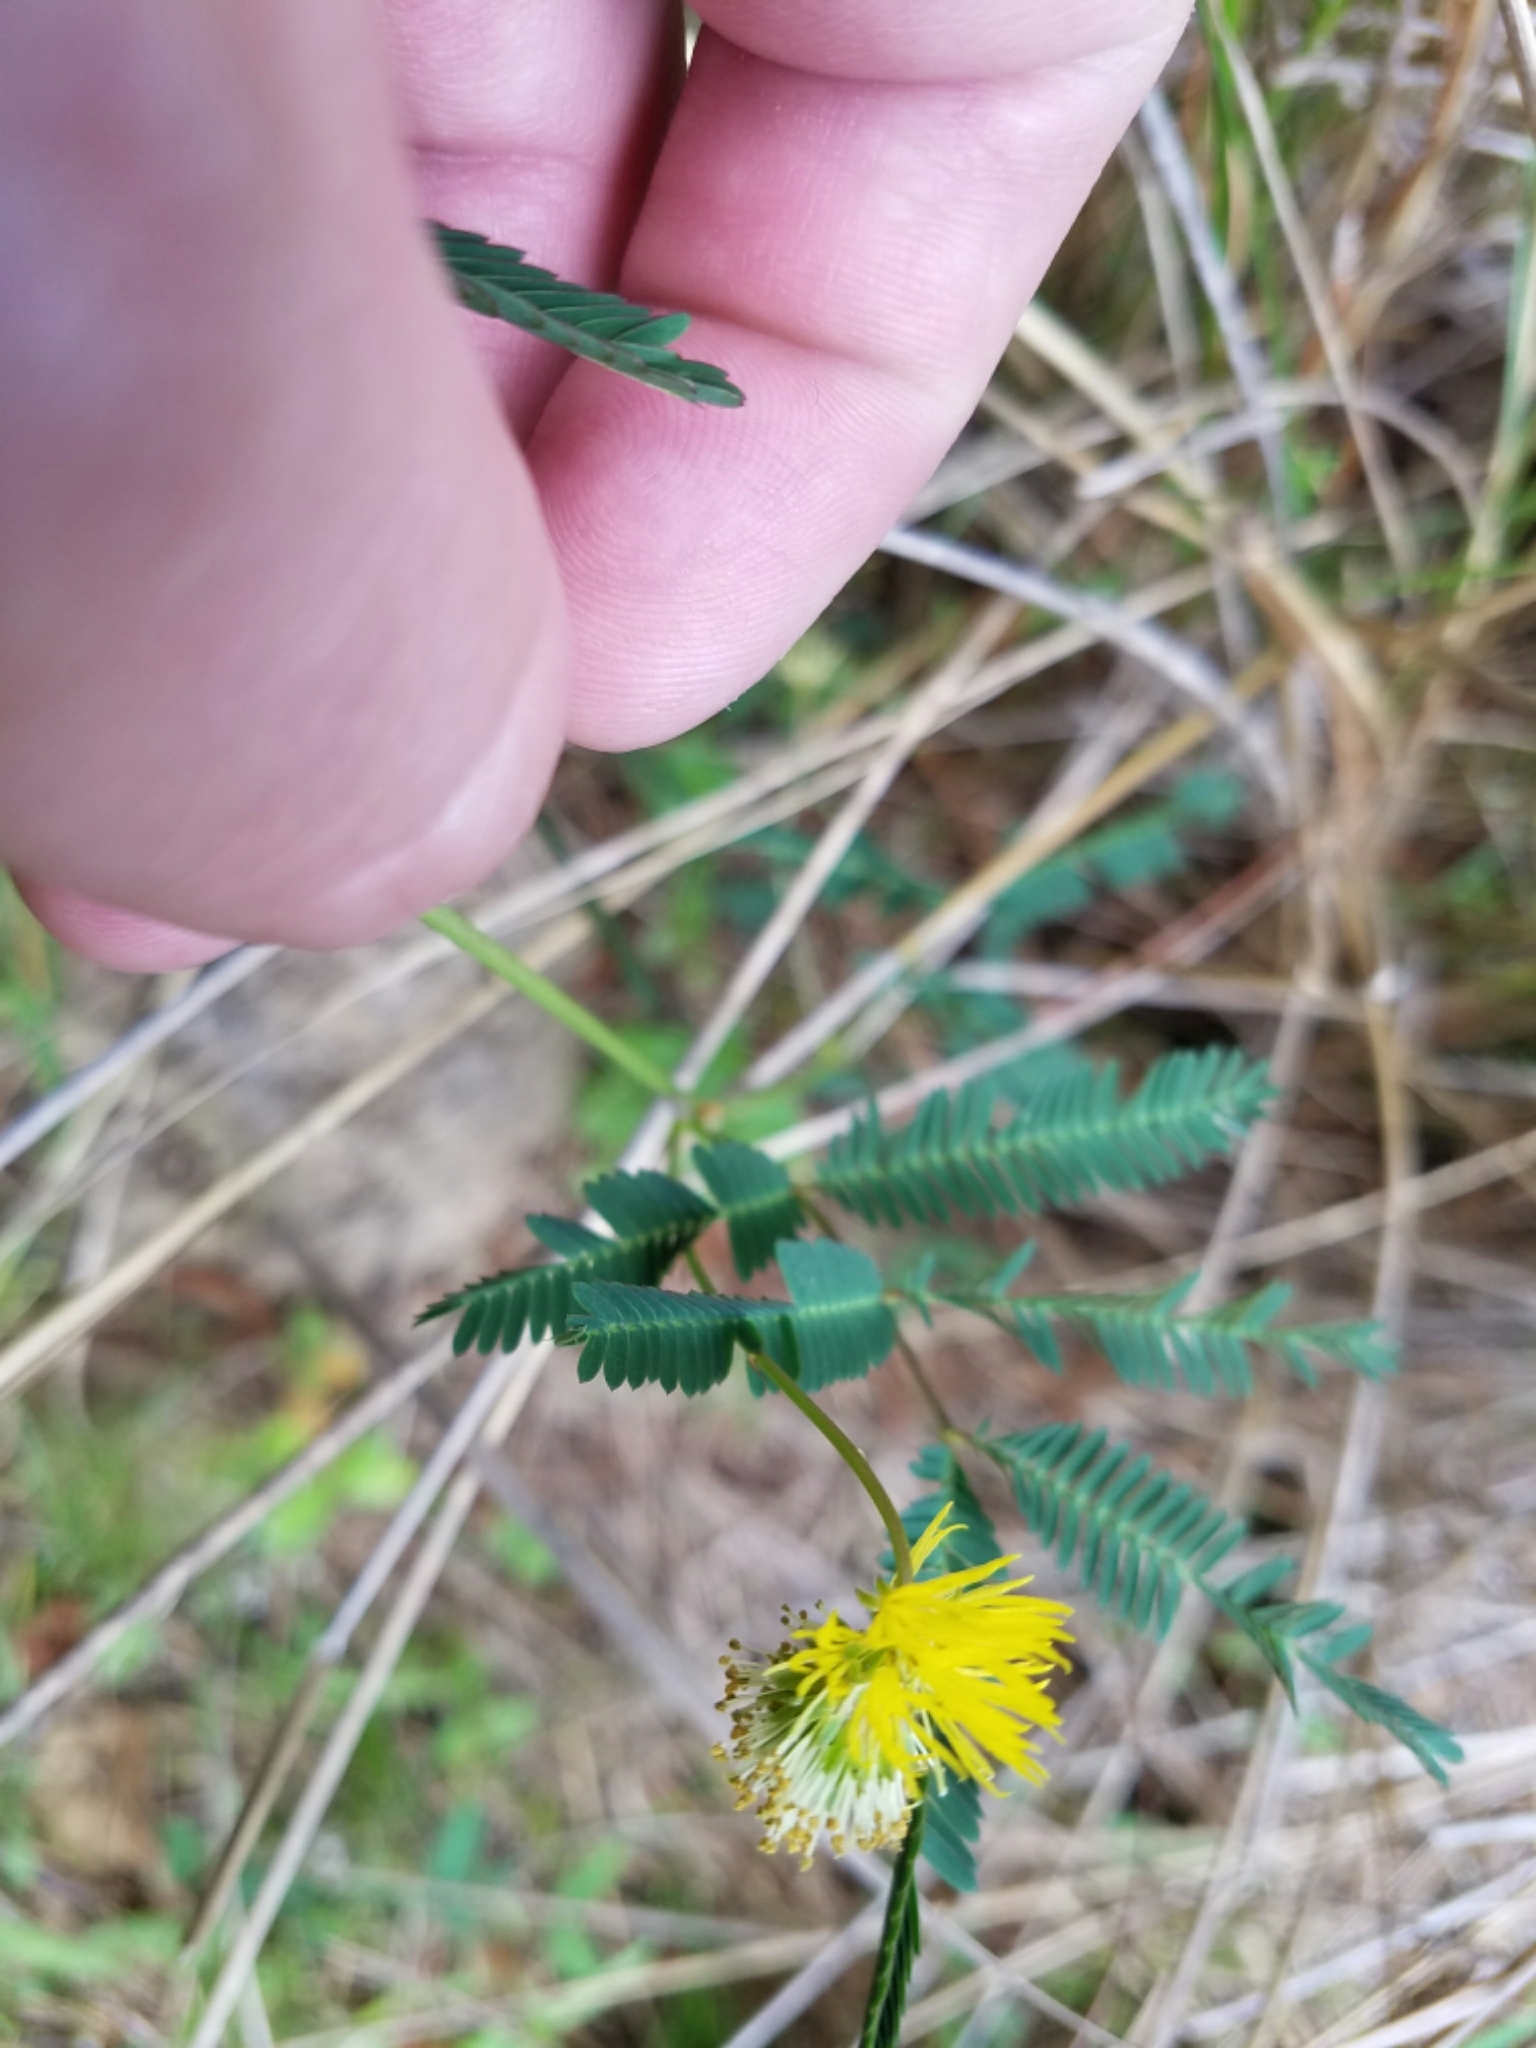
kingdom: Plantae
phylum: Tracheophyta
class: Magnoliopsida
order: Fabales
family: Fabaceae
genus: Neptunia
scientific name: Neptunia pubescens
